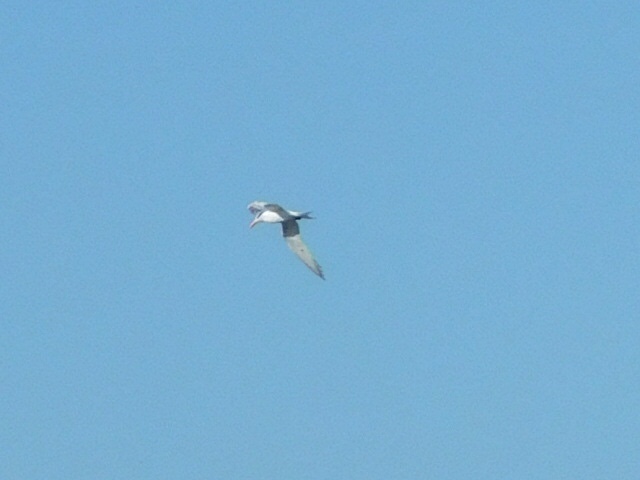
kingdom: Animalia
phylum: Chordata
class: Aves
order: Charadriiformes
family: Laridae
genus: Thalasseus
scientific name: Thalasseus maximus
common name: Royal tern
